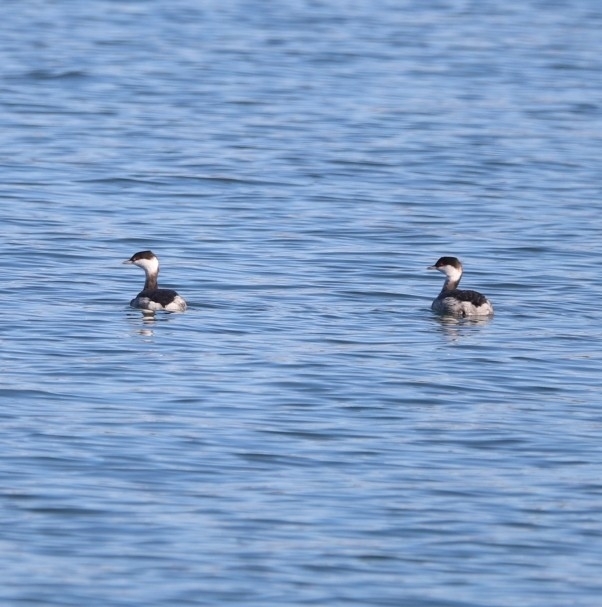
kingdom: Animalia
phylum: Chordata
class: Aves
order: Podicipediformes
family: Podicipedidae
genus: Podiceps
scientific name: Podiceps auritus
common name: Horned grebe
